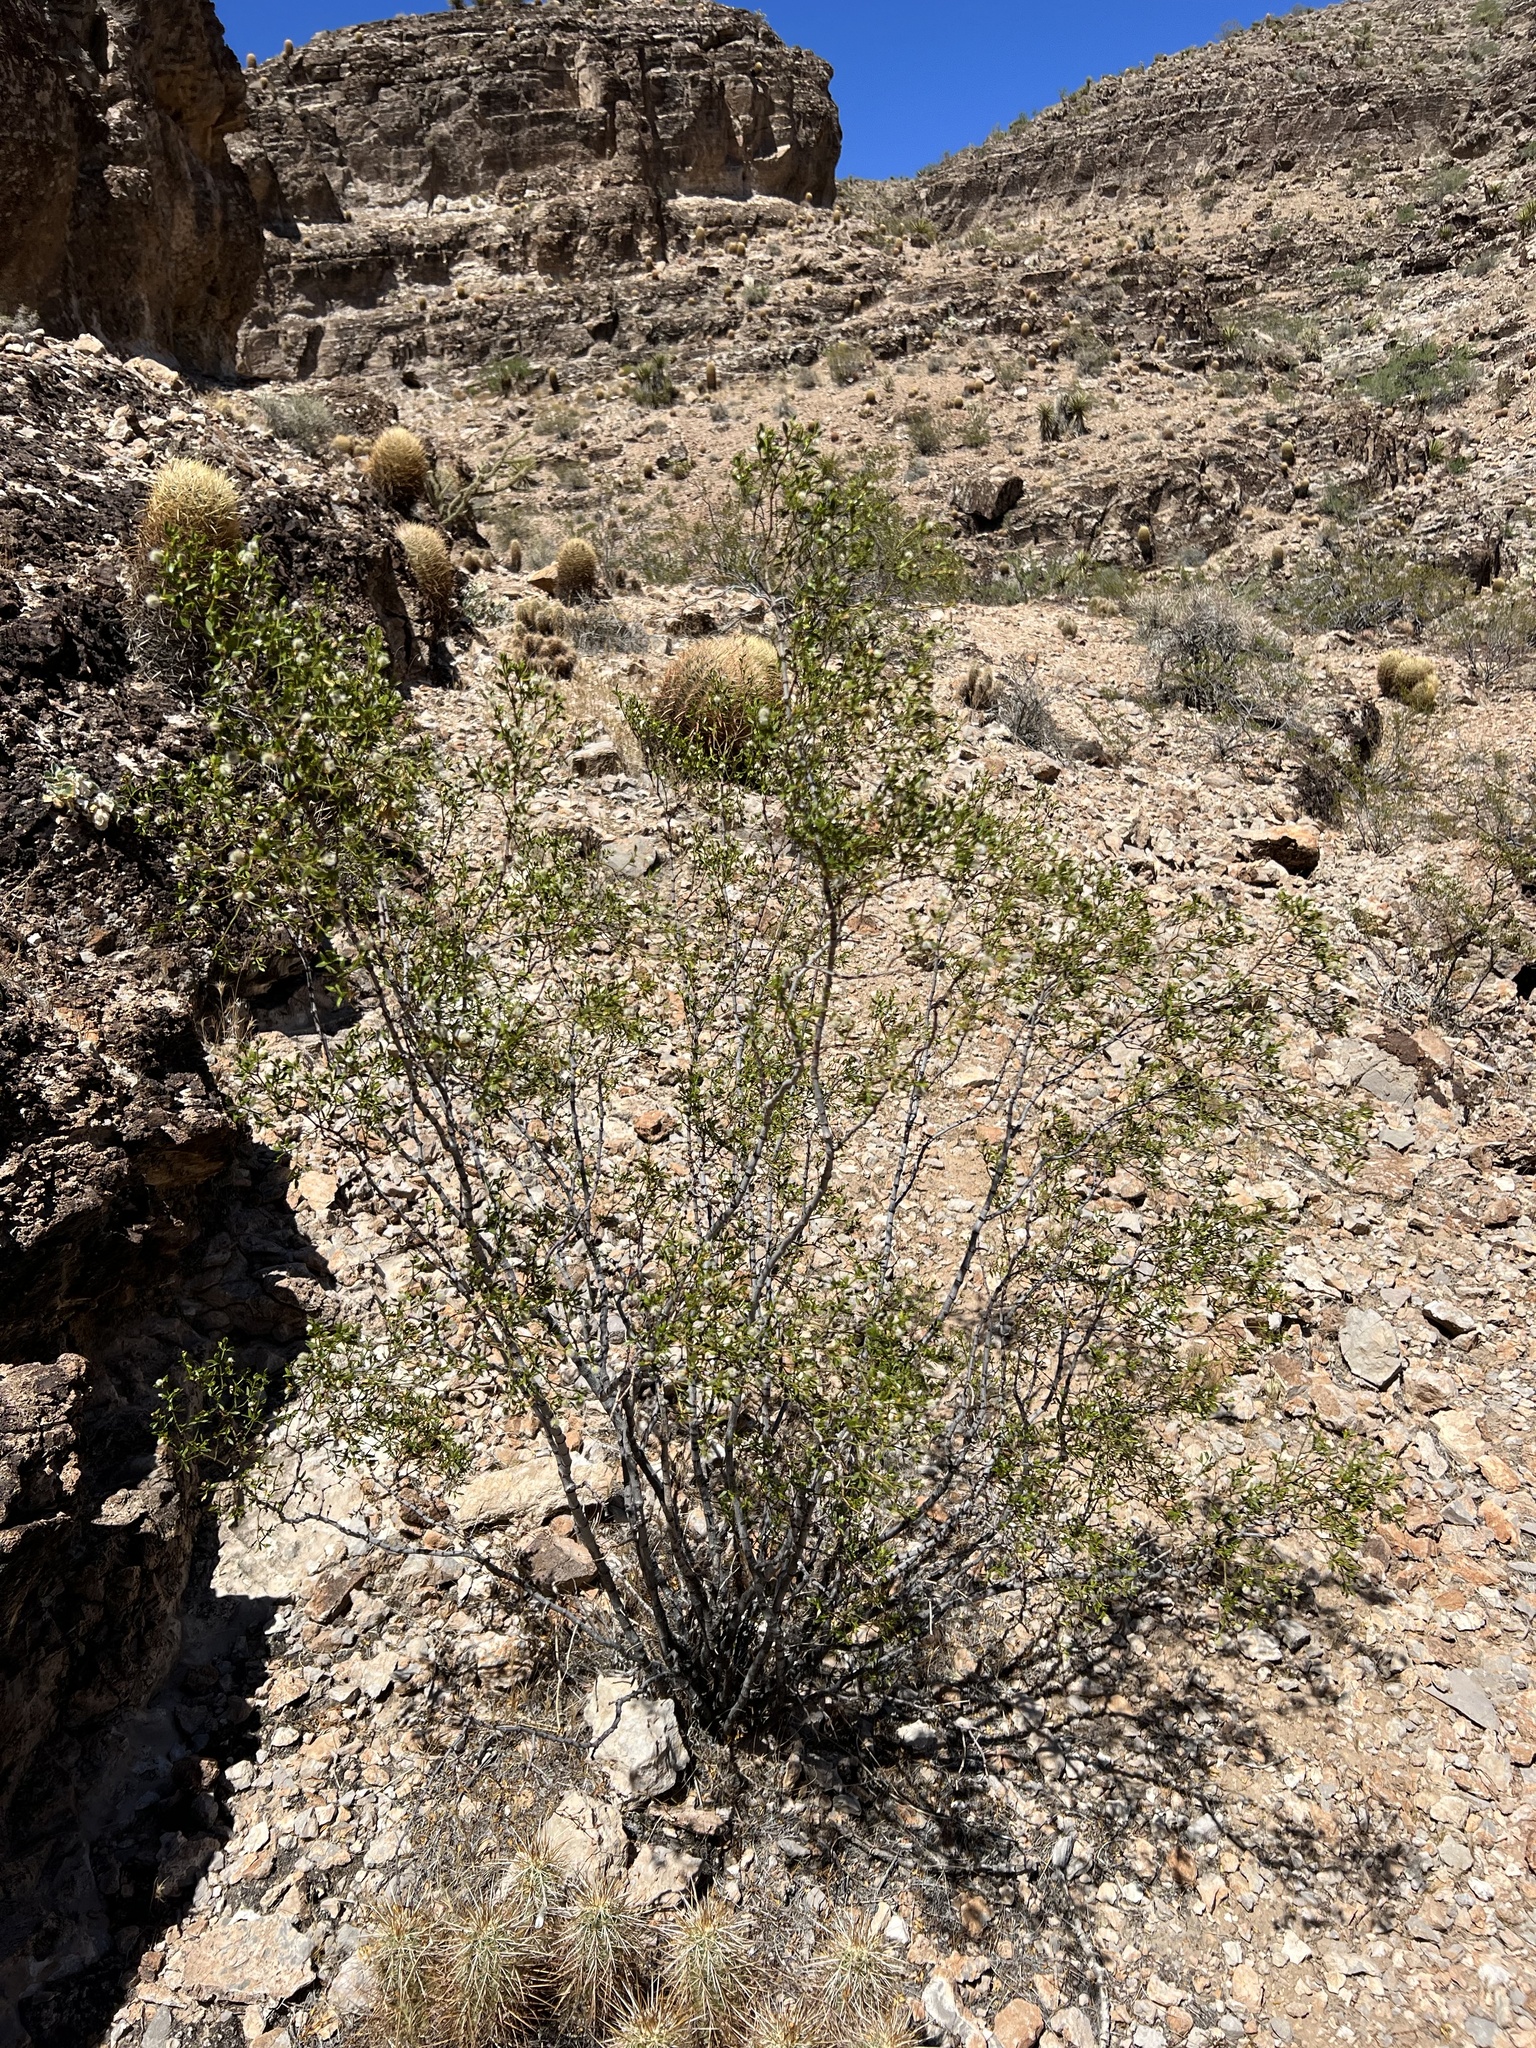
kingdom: Plantae
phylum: Tracheophyta
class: Magnoliopsida
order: Zygophyllales
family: Zygophyllaceae
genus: Larrea
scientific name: Larrea tridentata
